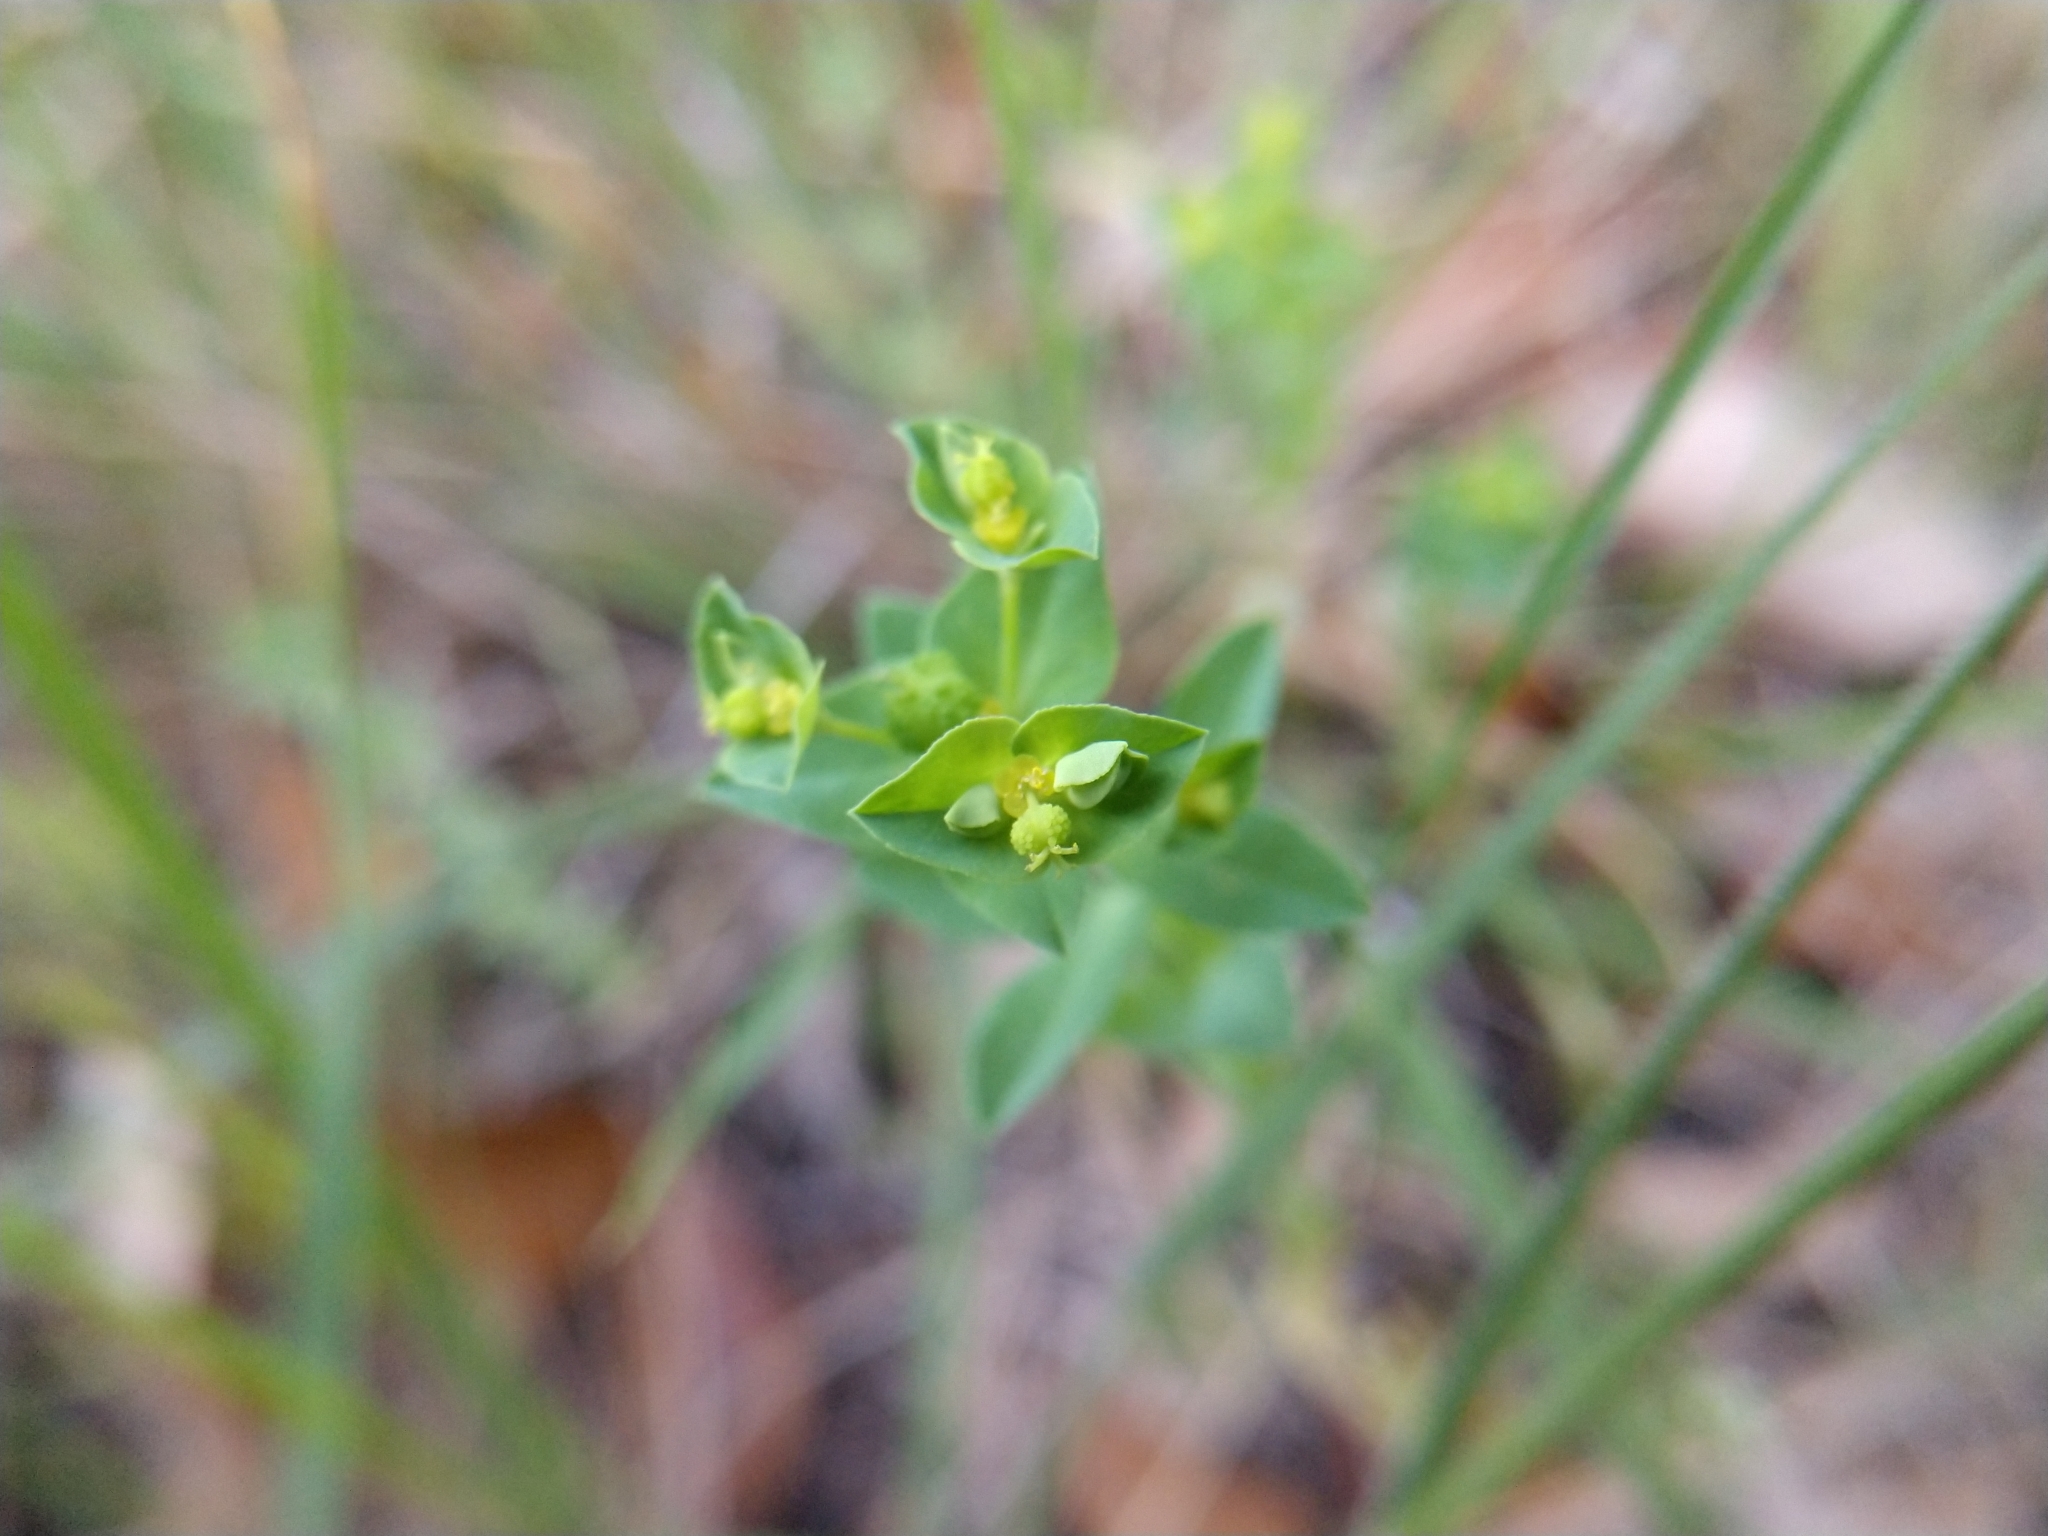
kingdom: Plantae
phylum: Tracheophyta
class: Magnoliopsida
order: Malpighiales
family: Euphorbiaceae
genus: Euphorbia
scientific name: Euphorbia spathulata
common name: Blunt spurge
